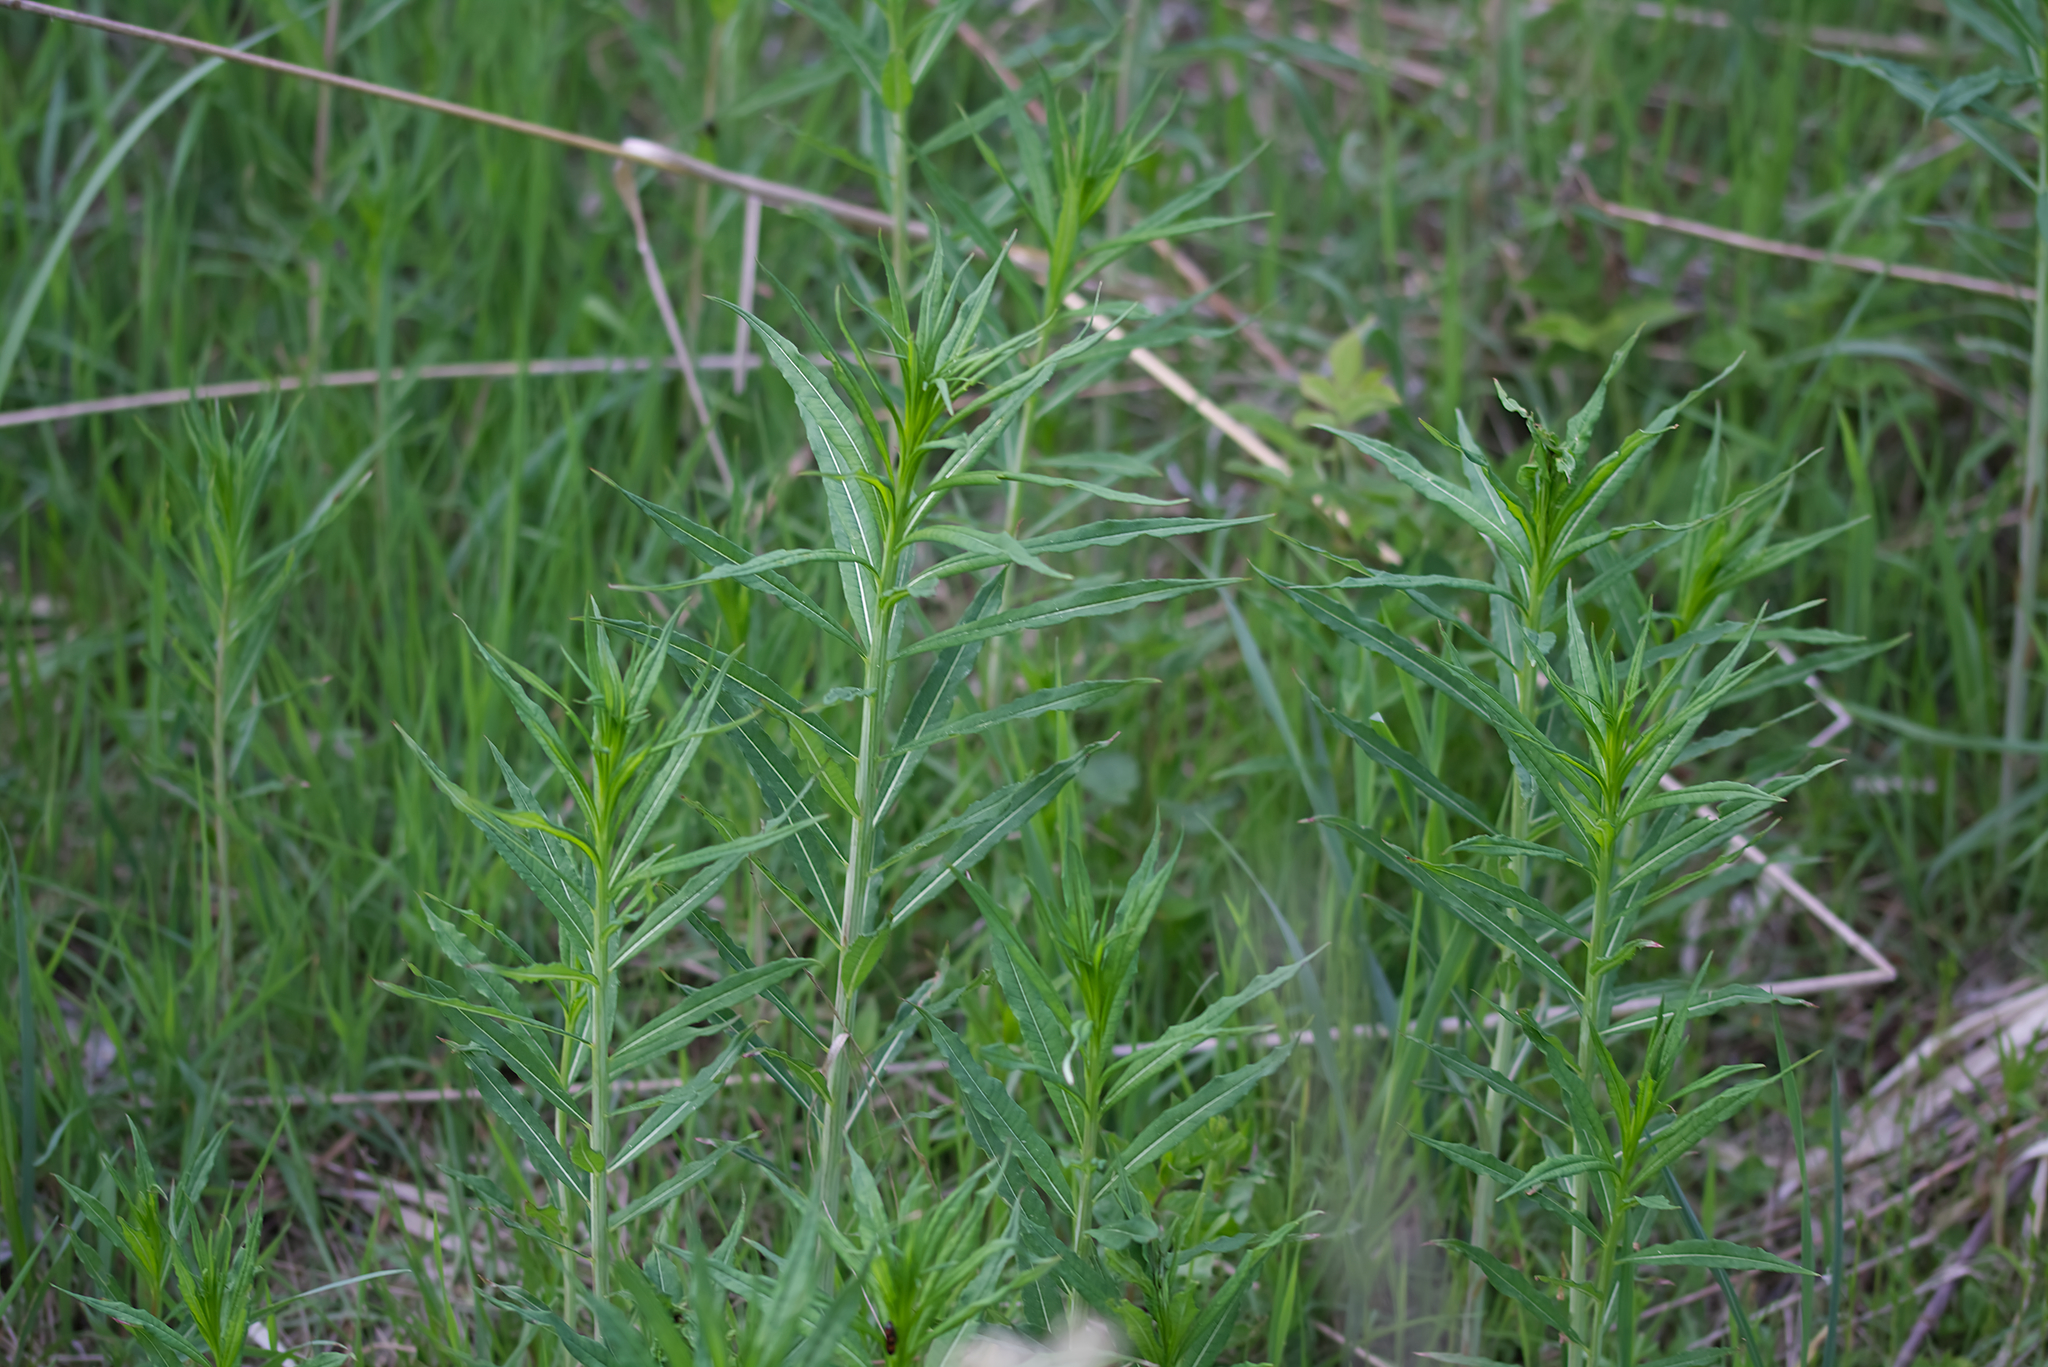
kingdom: Plantae
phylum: Tracheophyta
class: Magnoliopsida
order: Myrtales
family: Onagraceae
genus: Chamaenerion
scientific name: Chamaenerion angustifolium
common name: Fireweed
